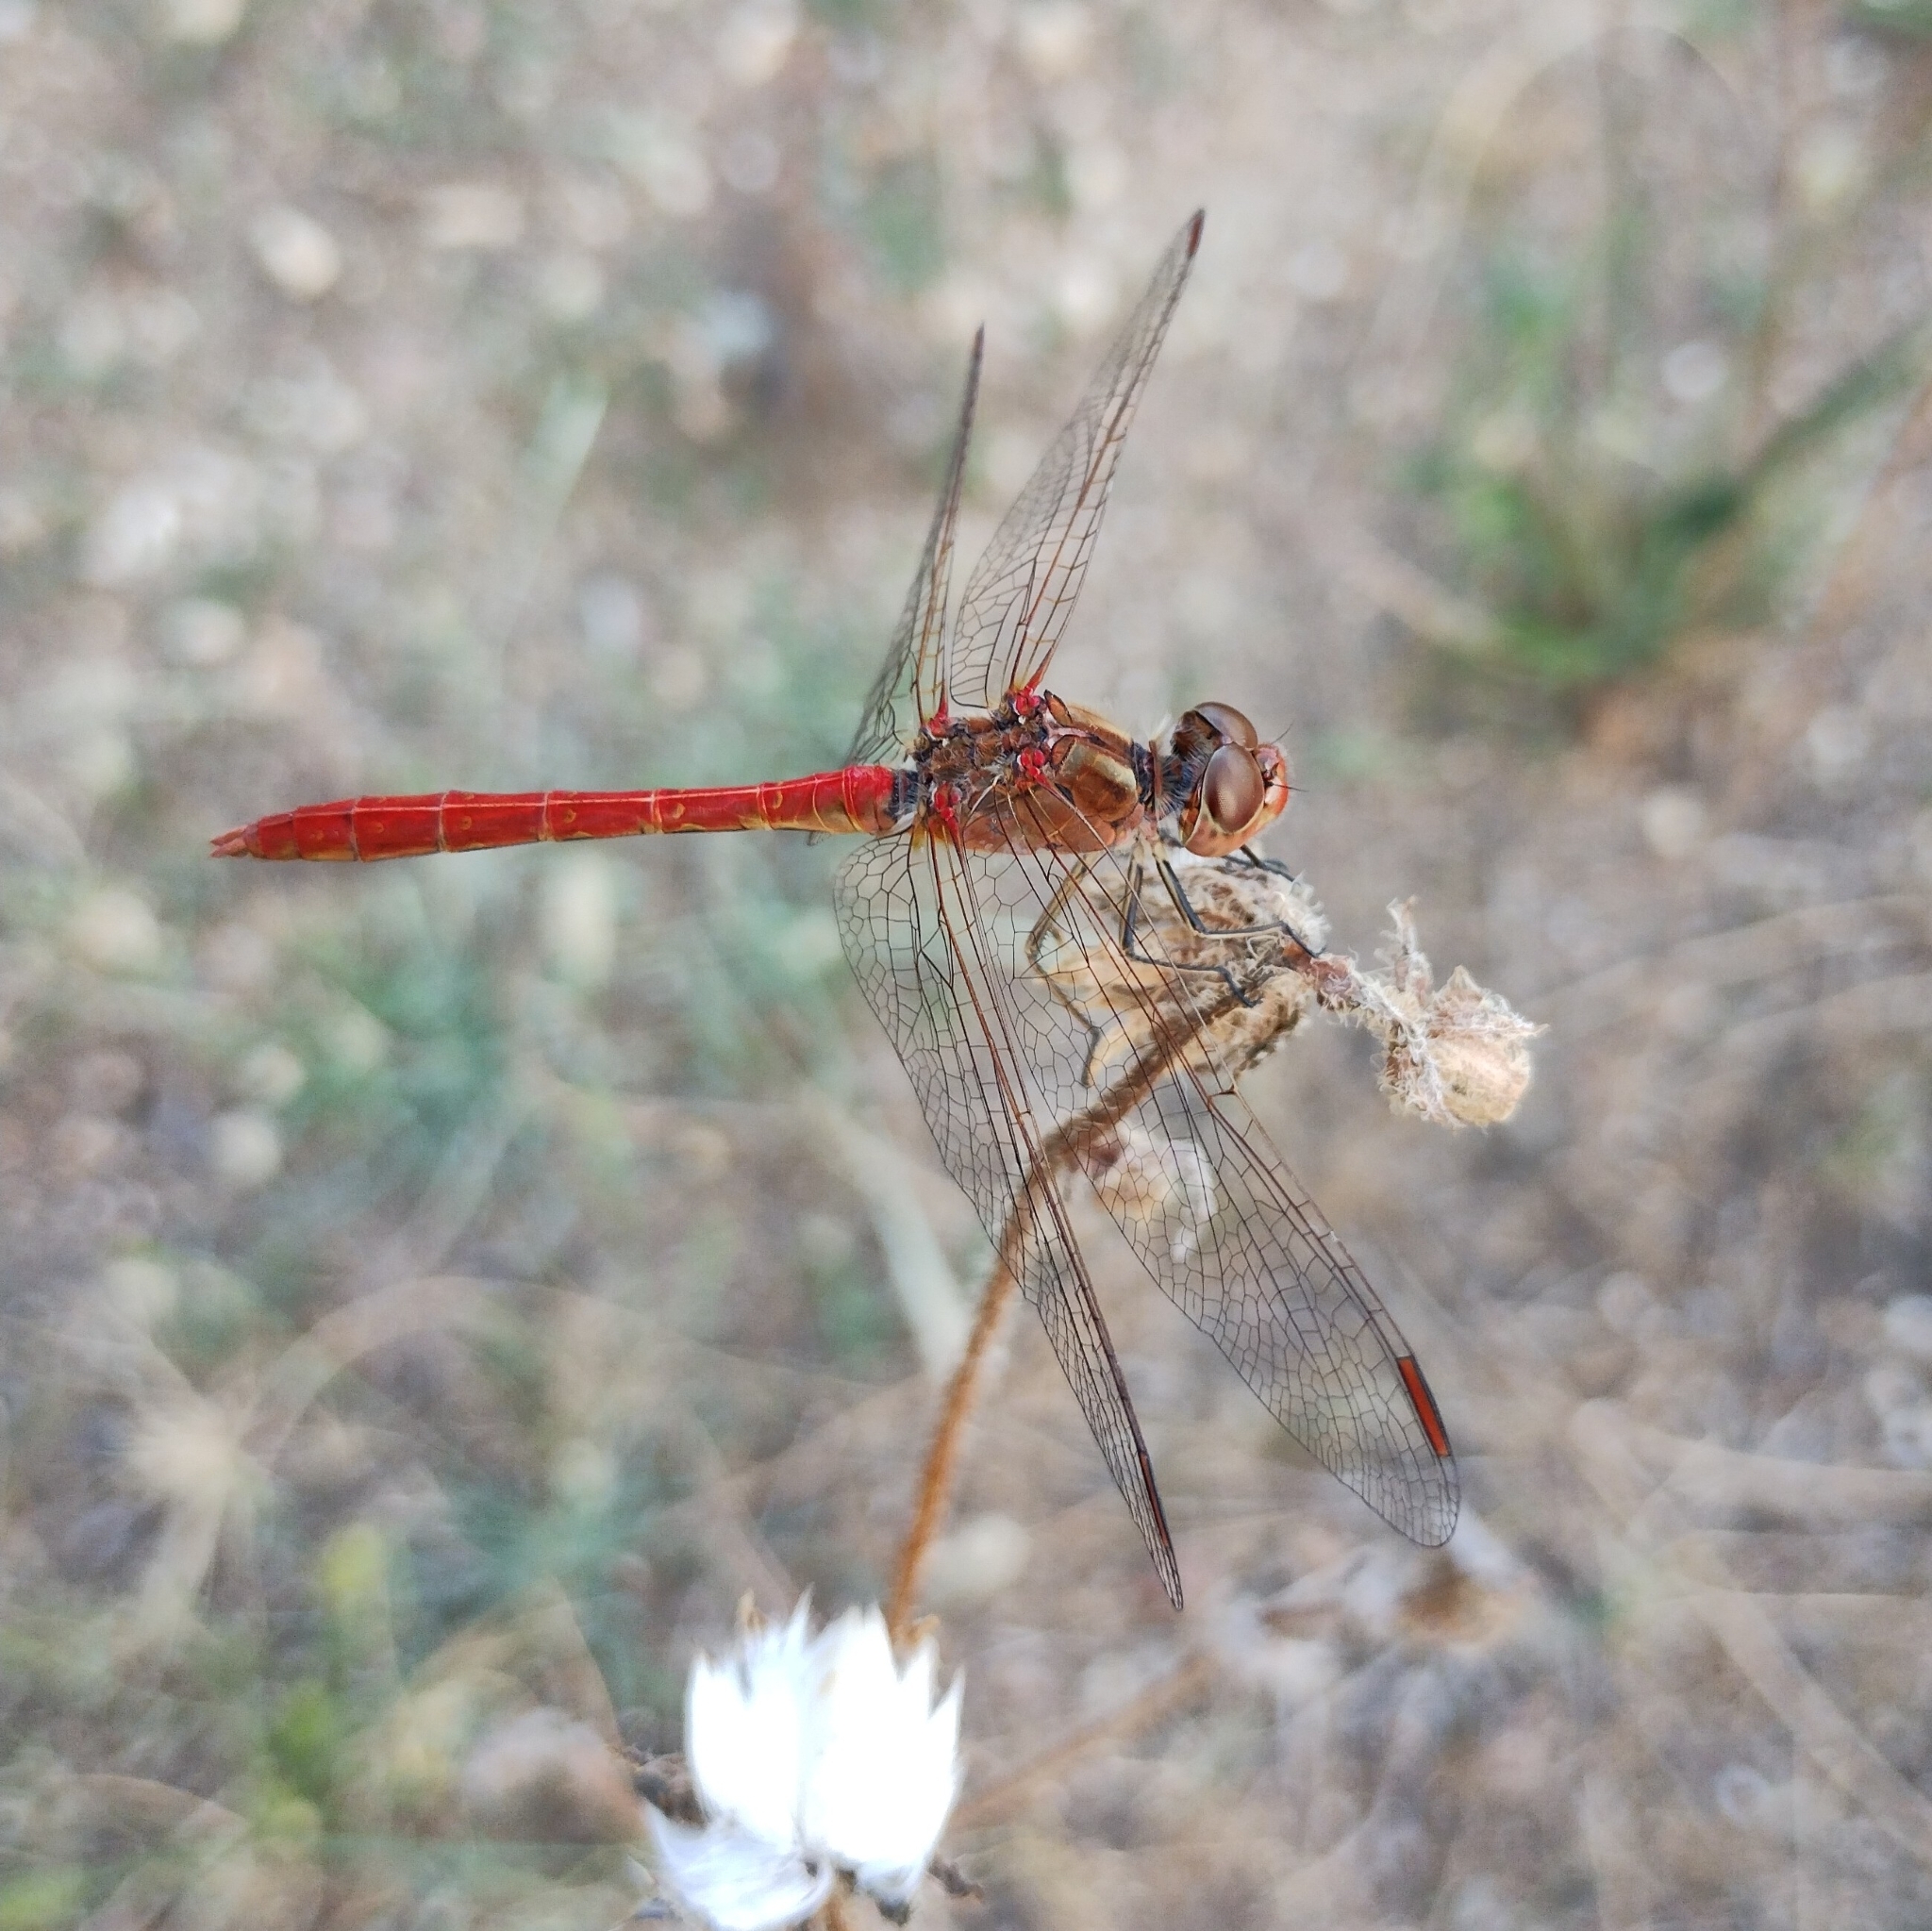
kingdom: Animalia
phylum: Arthropoda
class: Insecta
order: Odonata
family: Libellulidae
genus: Sympetrum
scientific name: Sympetrum meridionale
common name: Southern darter
